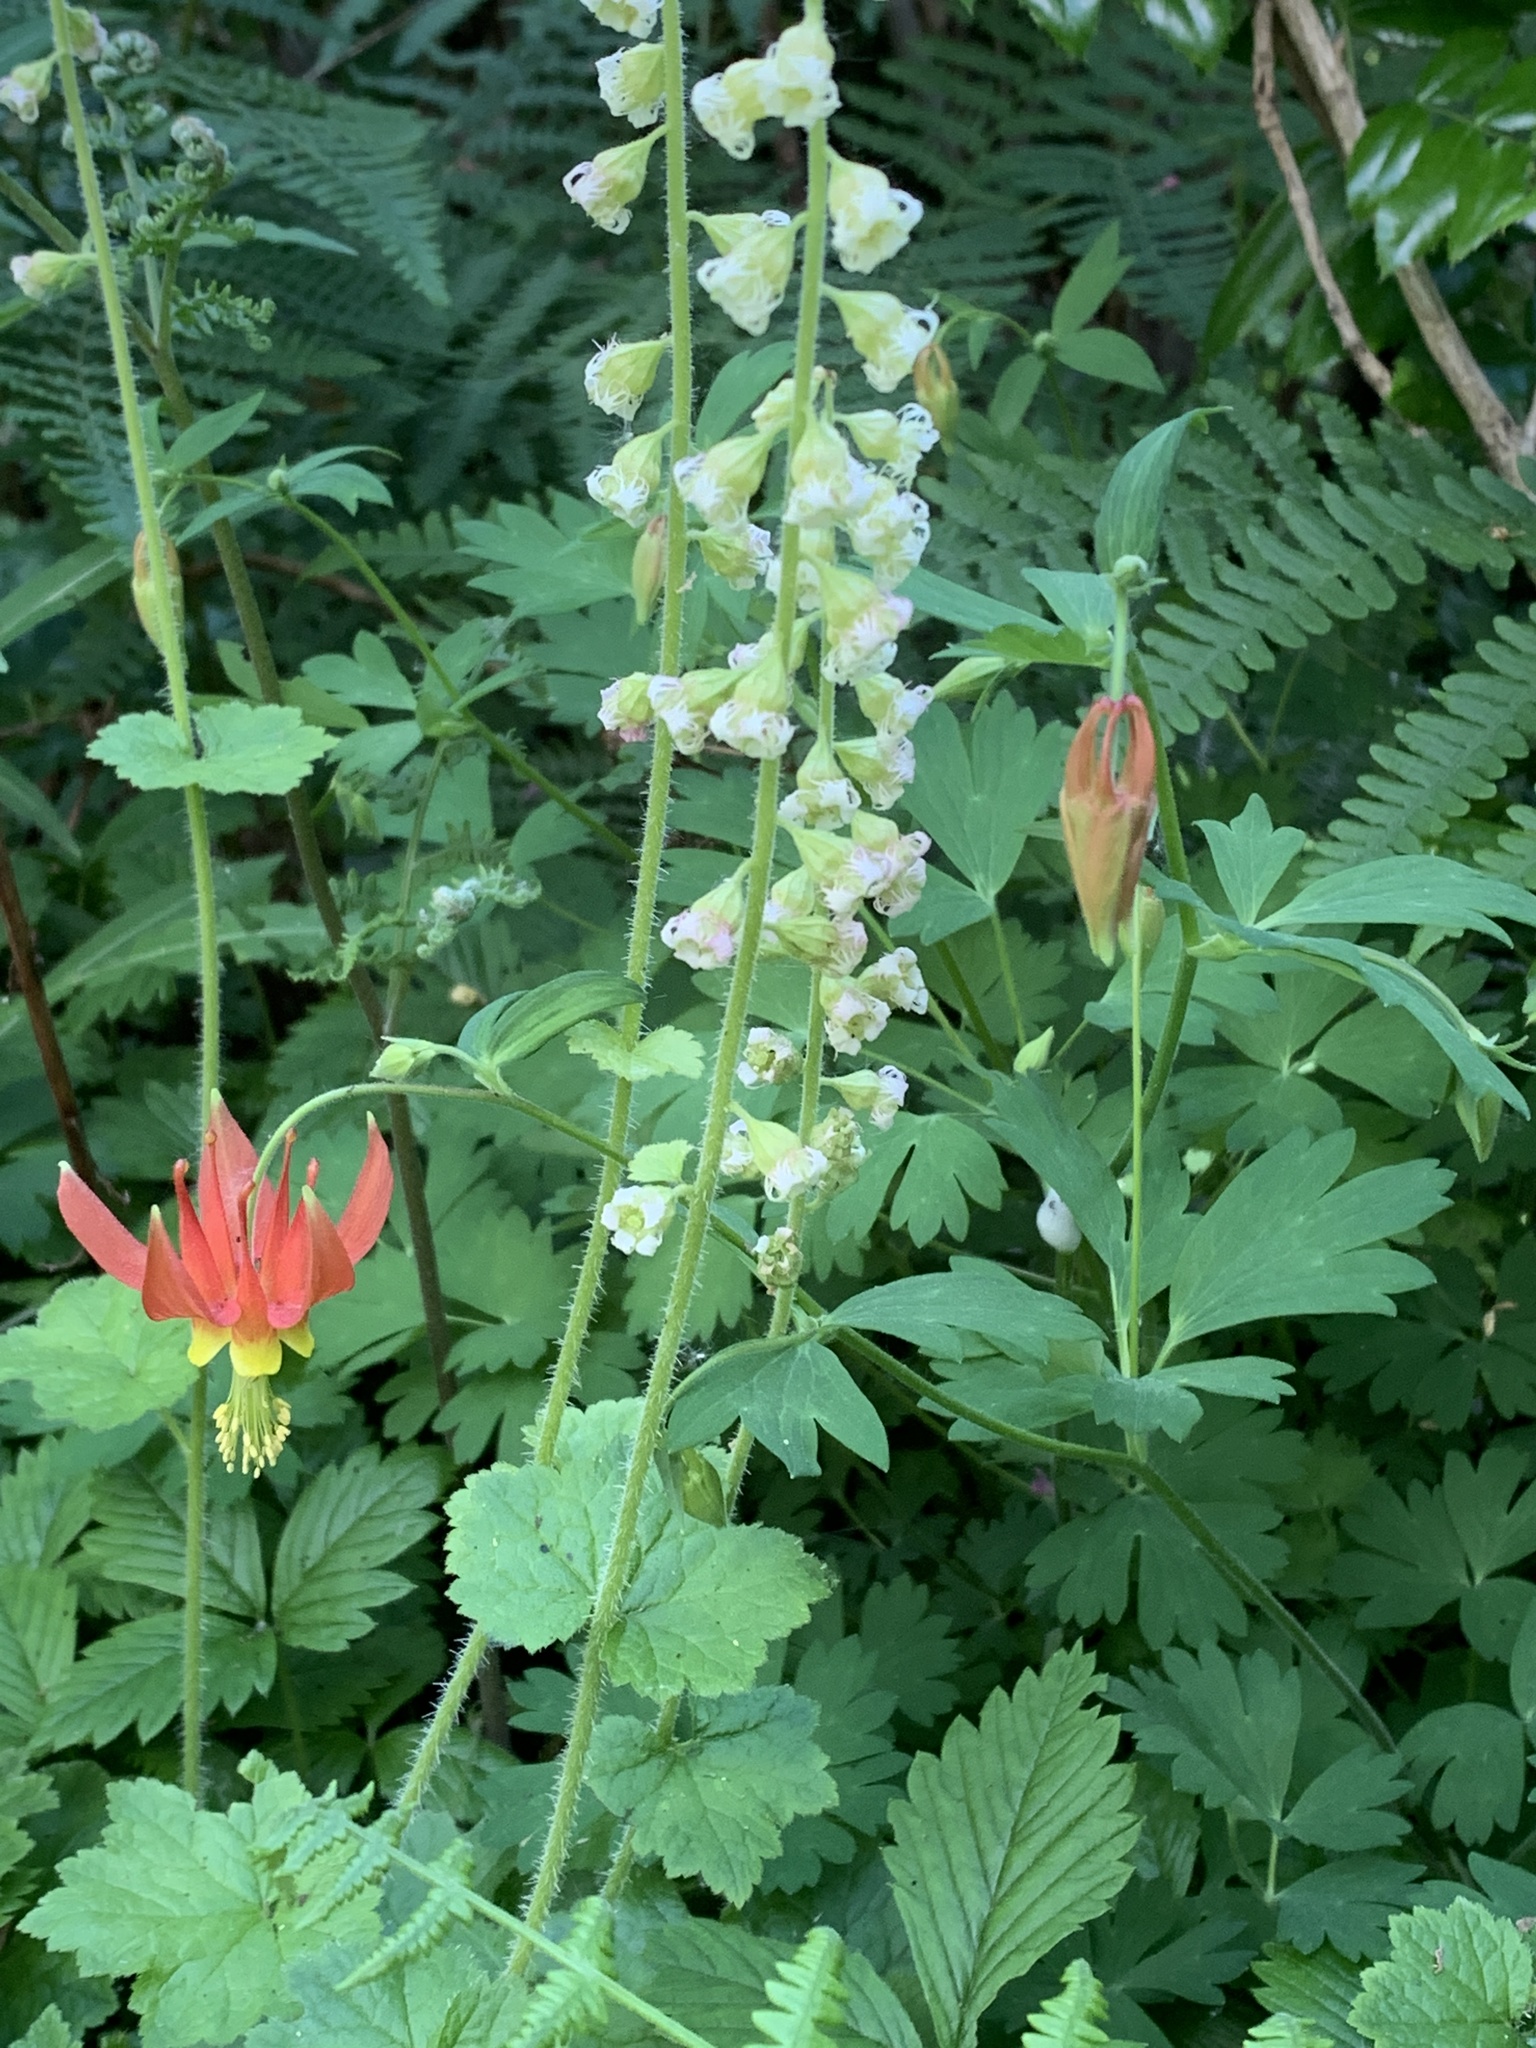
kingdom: Plantae
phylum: Tracheophyta
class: Magnoliopsida
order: Ranunculales
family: Ranunculaceae
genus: Aquilegia
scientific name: Aquilegia formosa
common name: Sitka columbine
